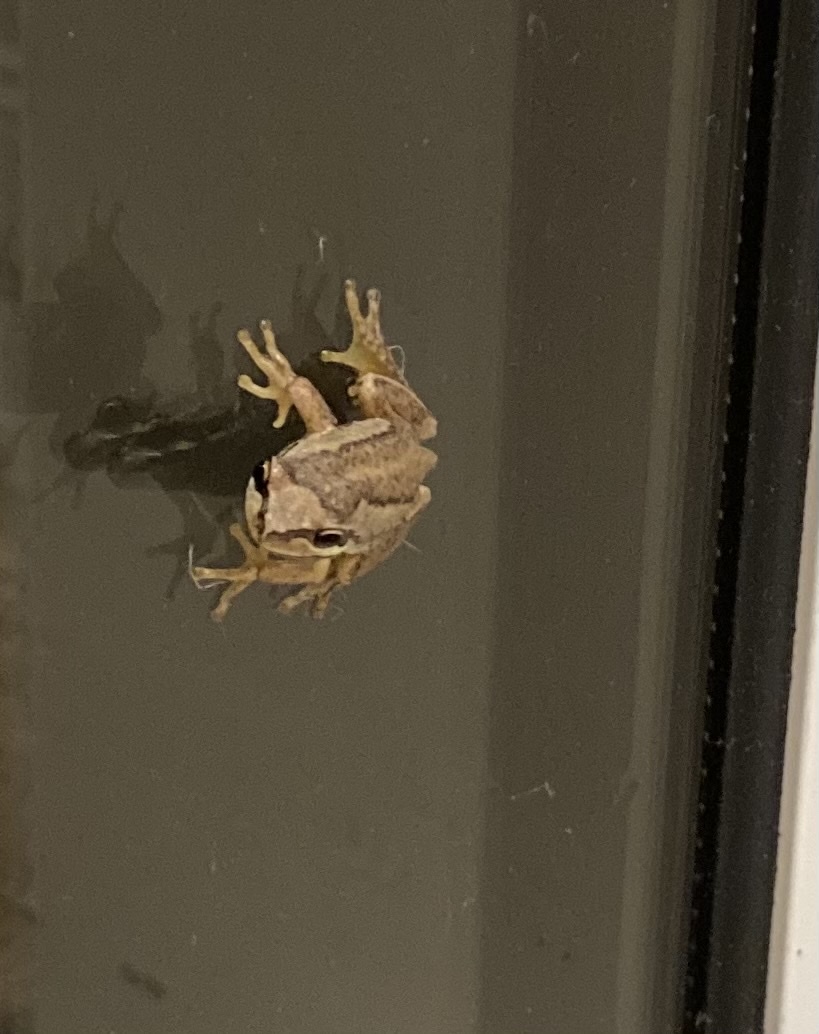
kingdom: Animalia
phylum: Chordata
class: Amphibia
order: Anura
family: Pelodryadidae
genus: Litoria
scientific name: Litoria ewingii
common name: Southern brown tree frog
